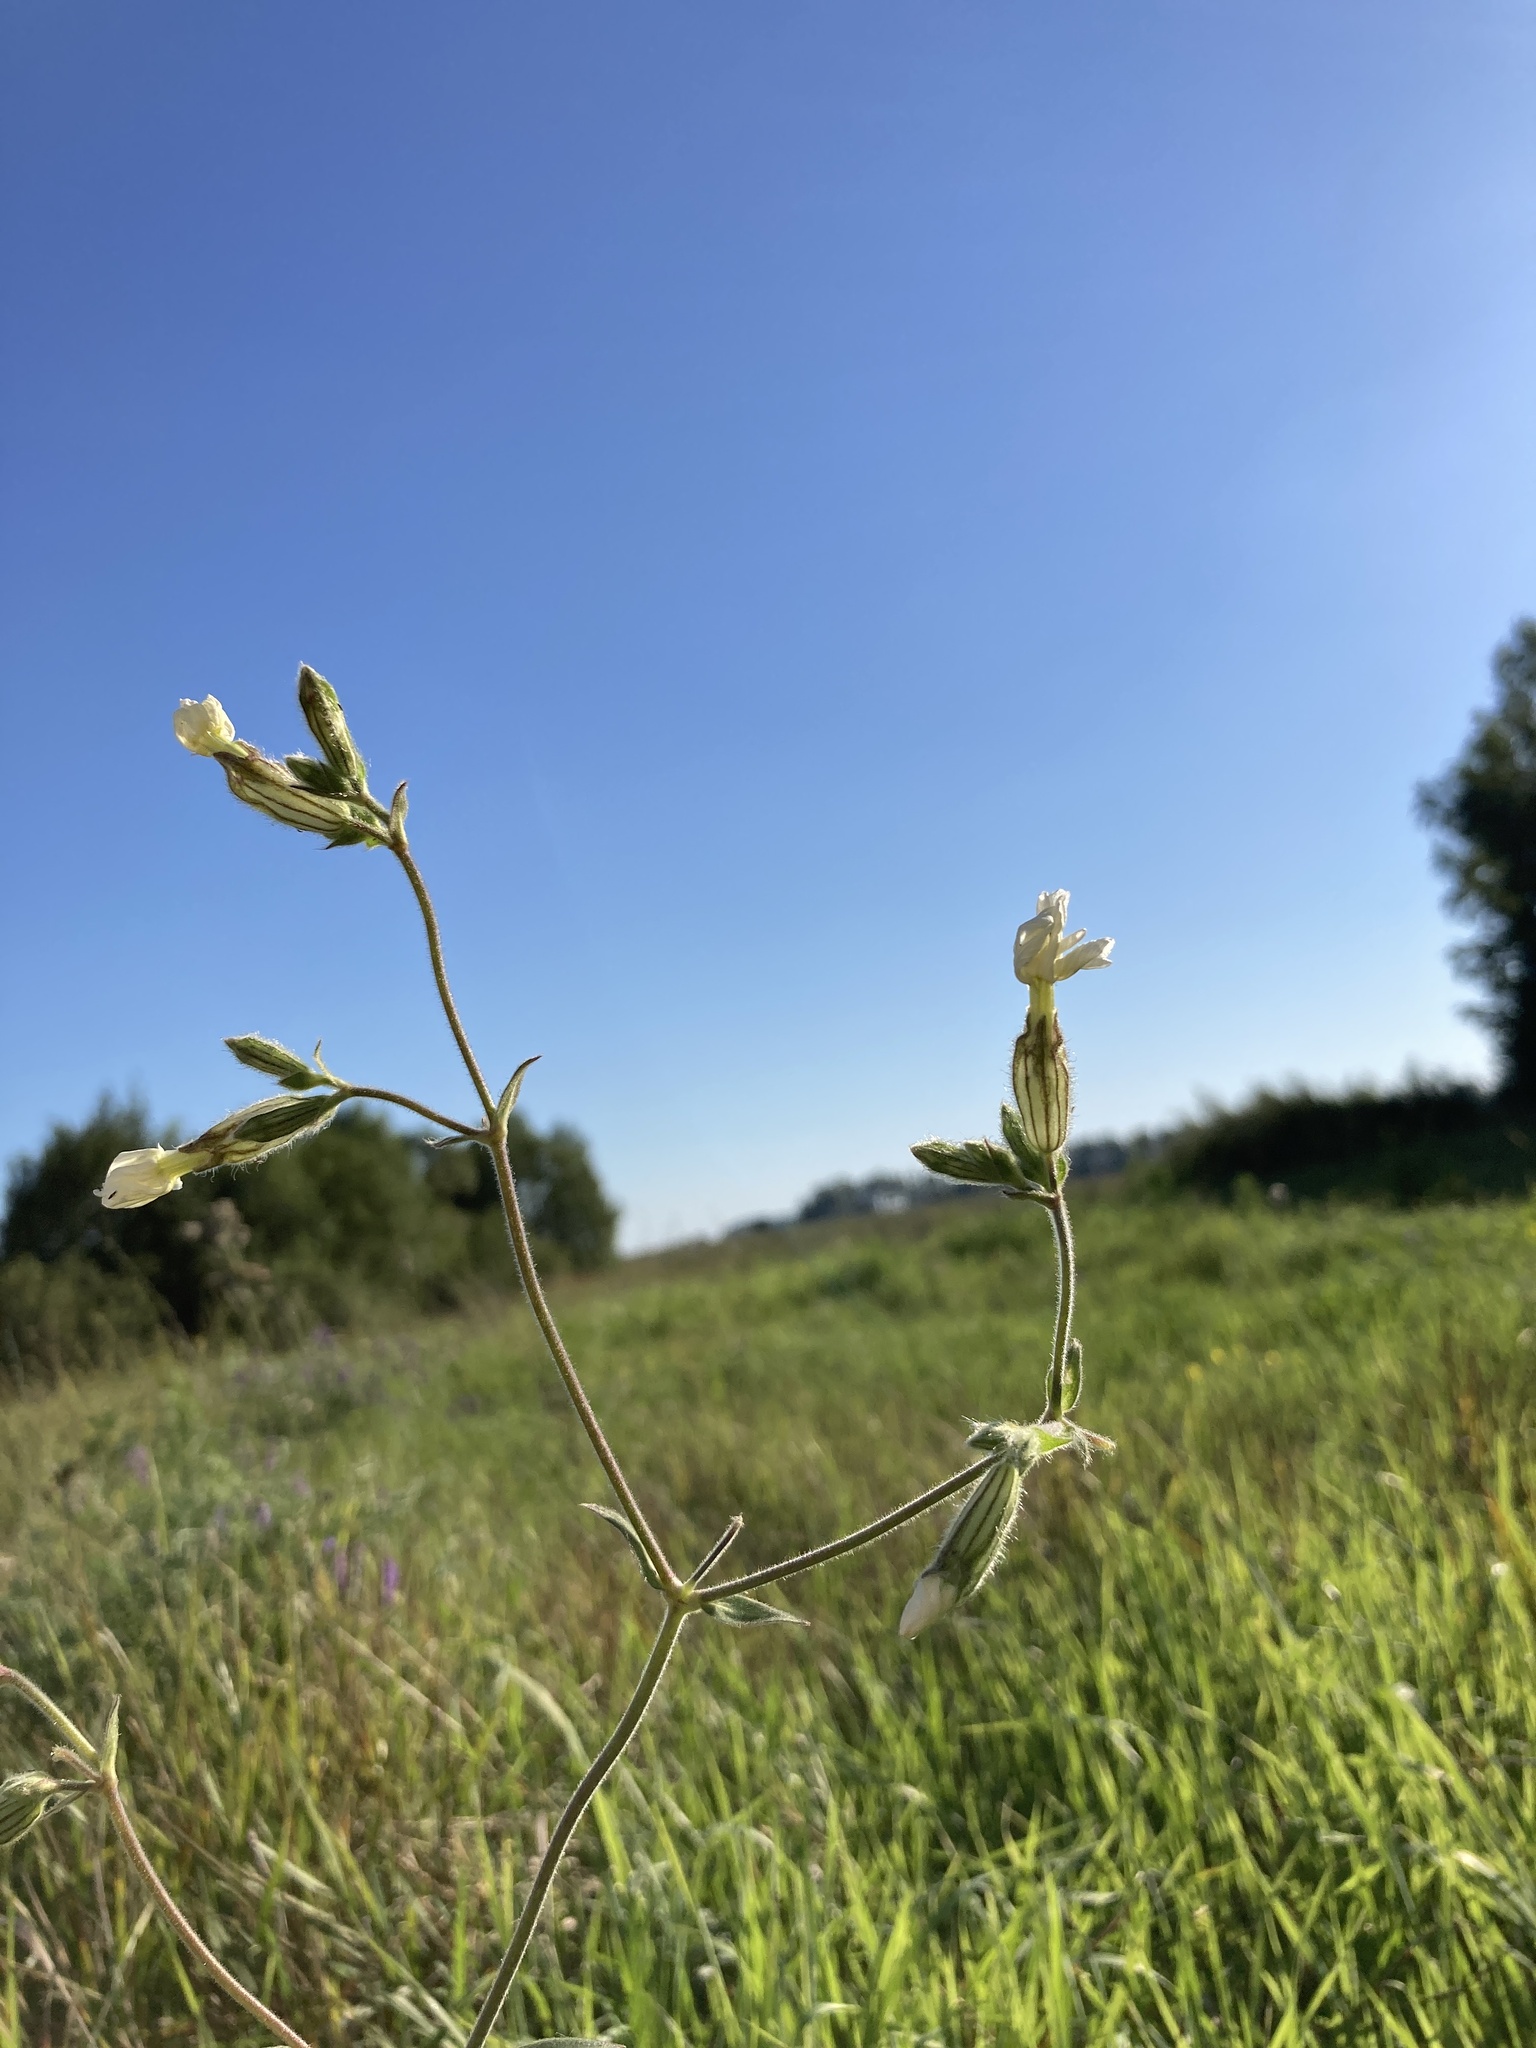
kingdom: Plantae
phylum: Tracheophyta
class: Magnoliopsida
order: Caryophyllales
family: Caryophyllaceae
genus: Silene
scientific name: Silene latifolia
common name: White campion
